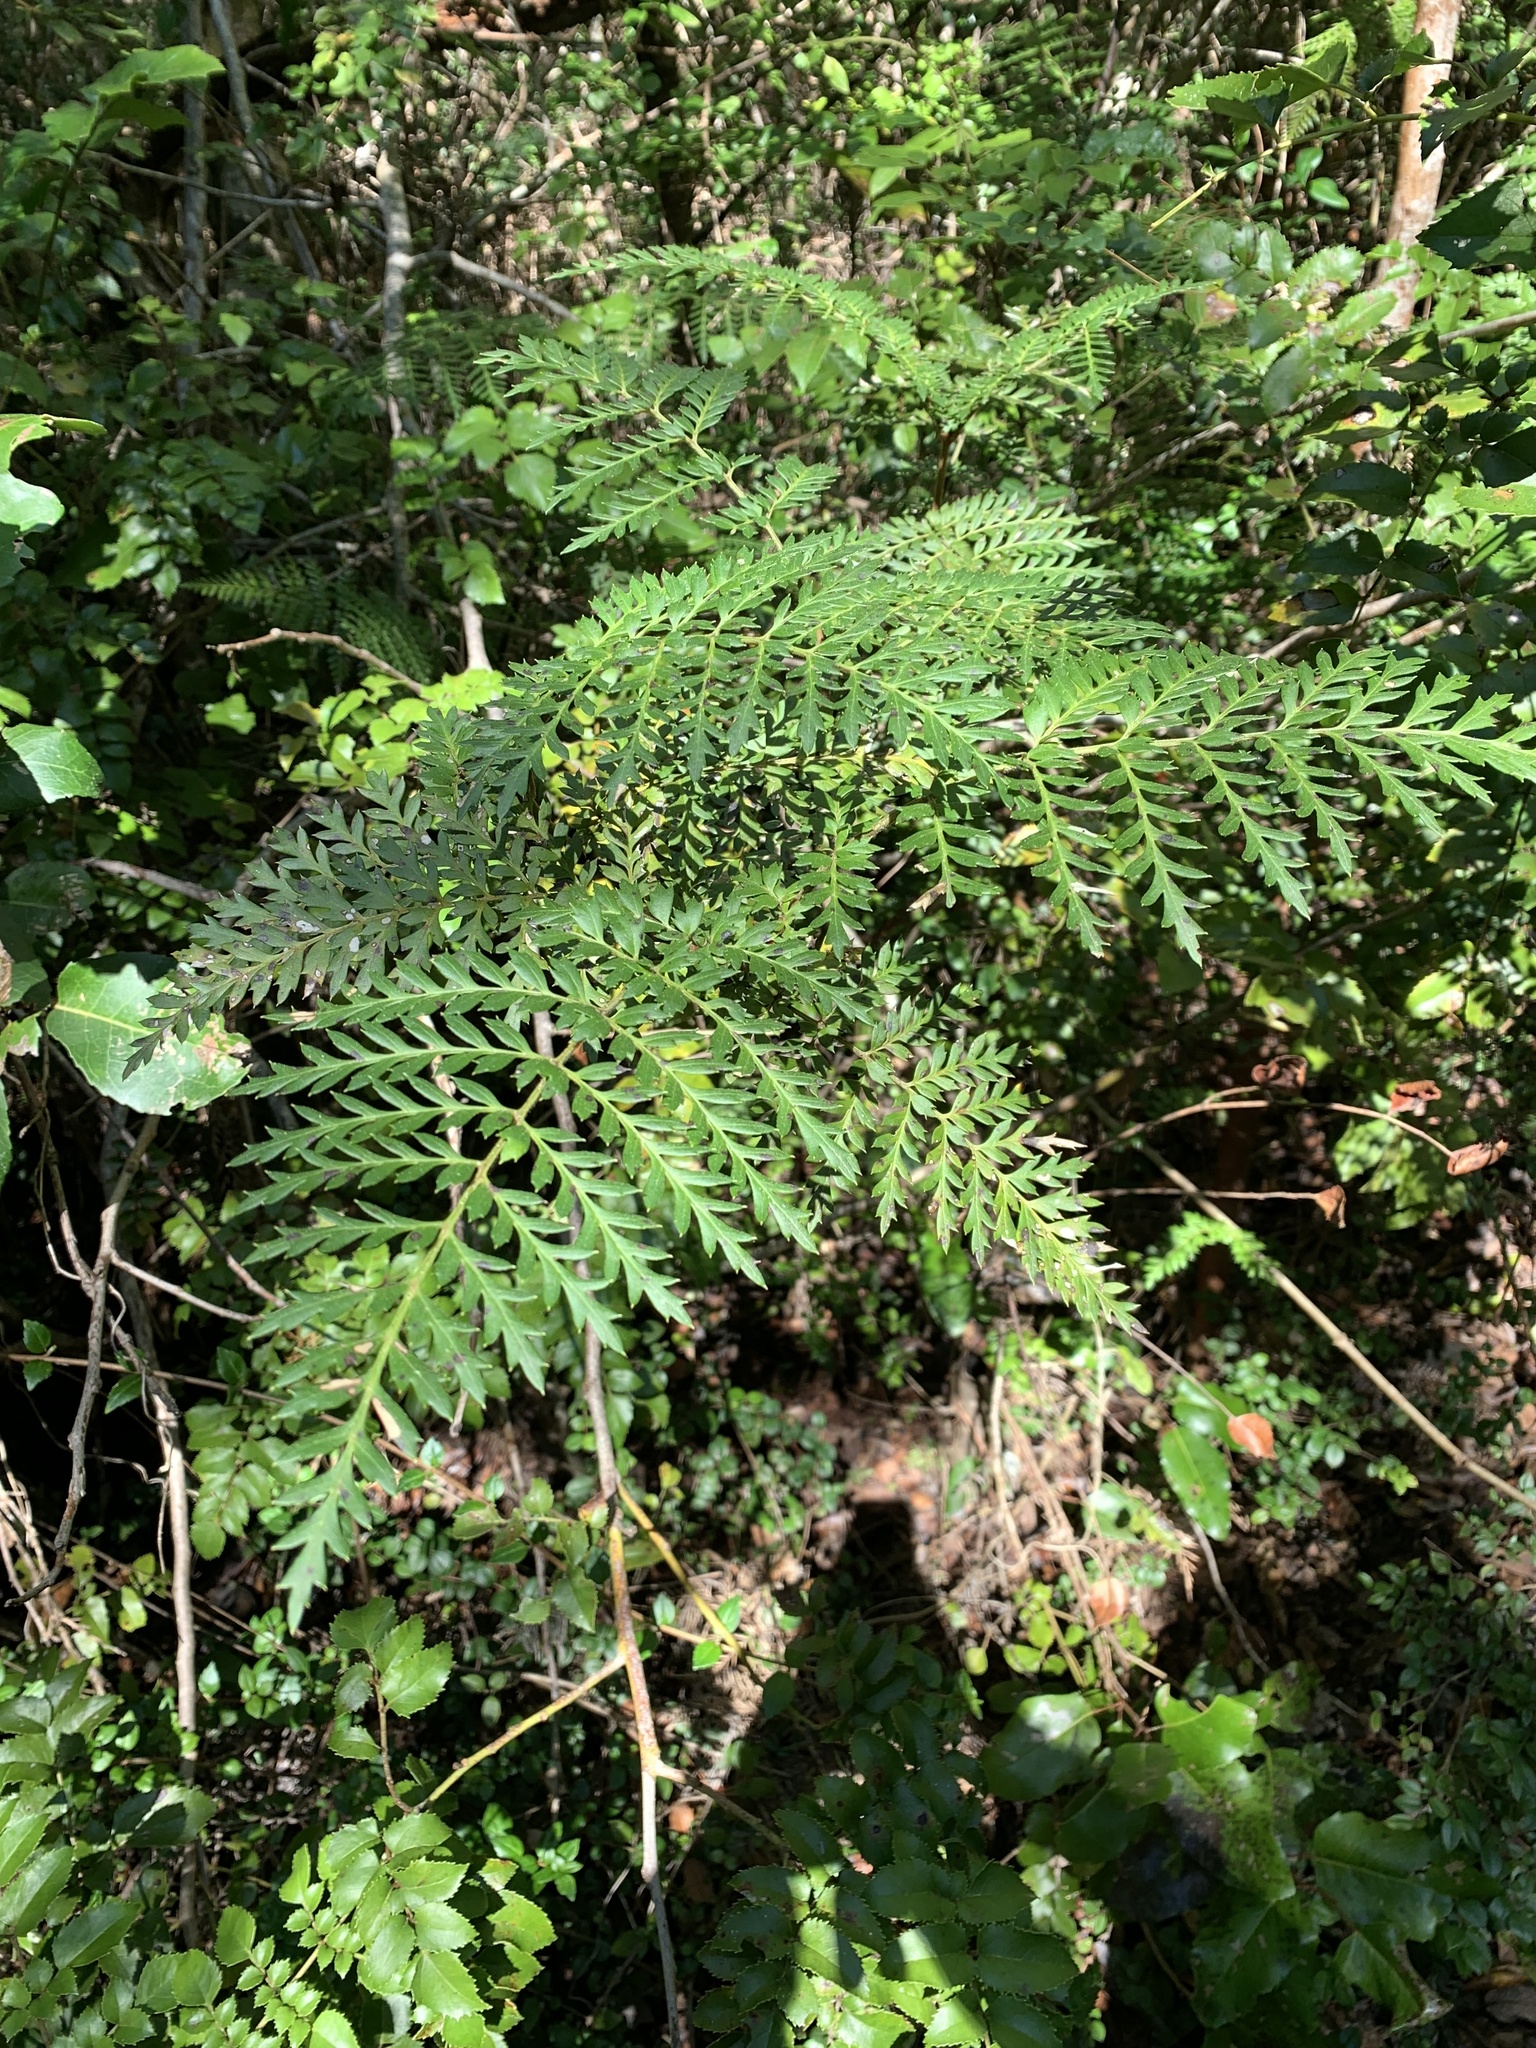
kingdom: Plantae
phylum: Tracheophyta
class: Magnoliopsida
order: Proteales
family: Proteaceae
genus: Lomatia
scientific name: Lomatia ferruginea
